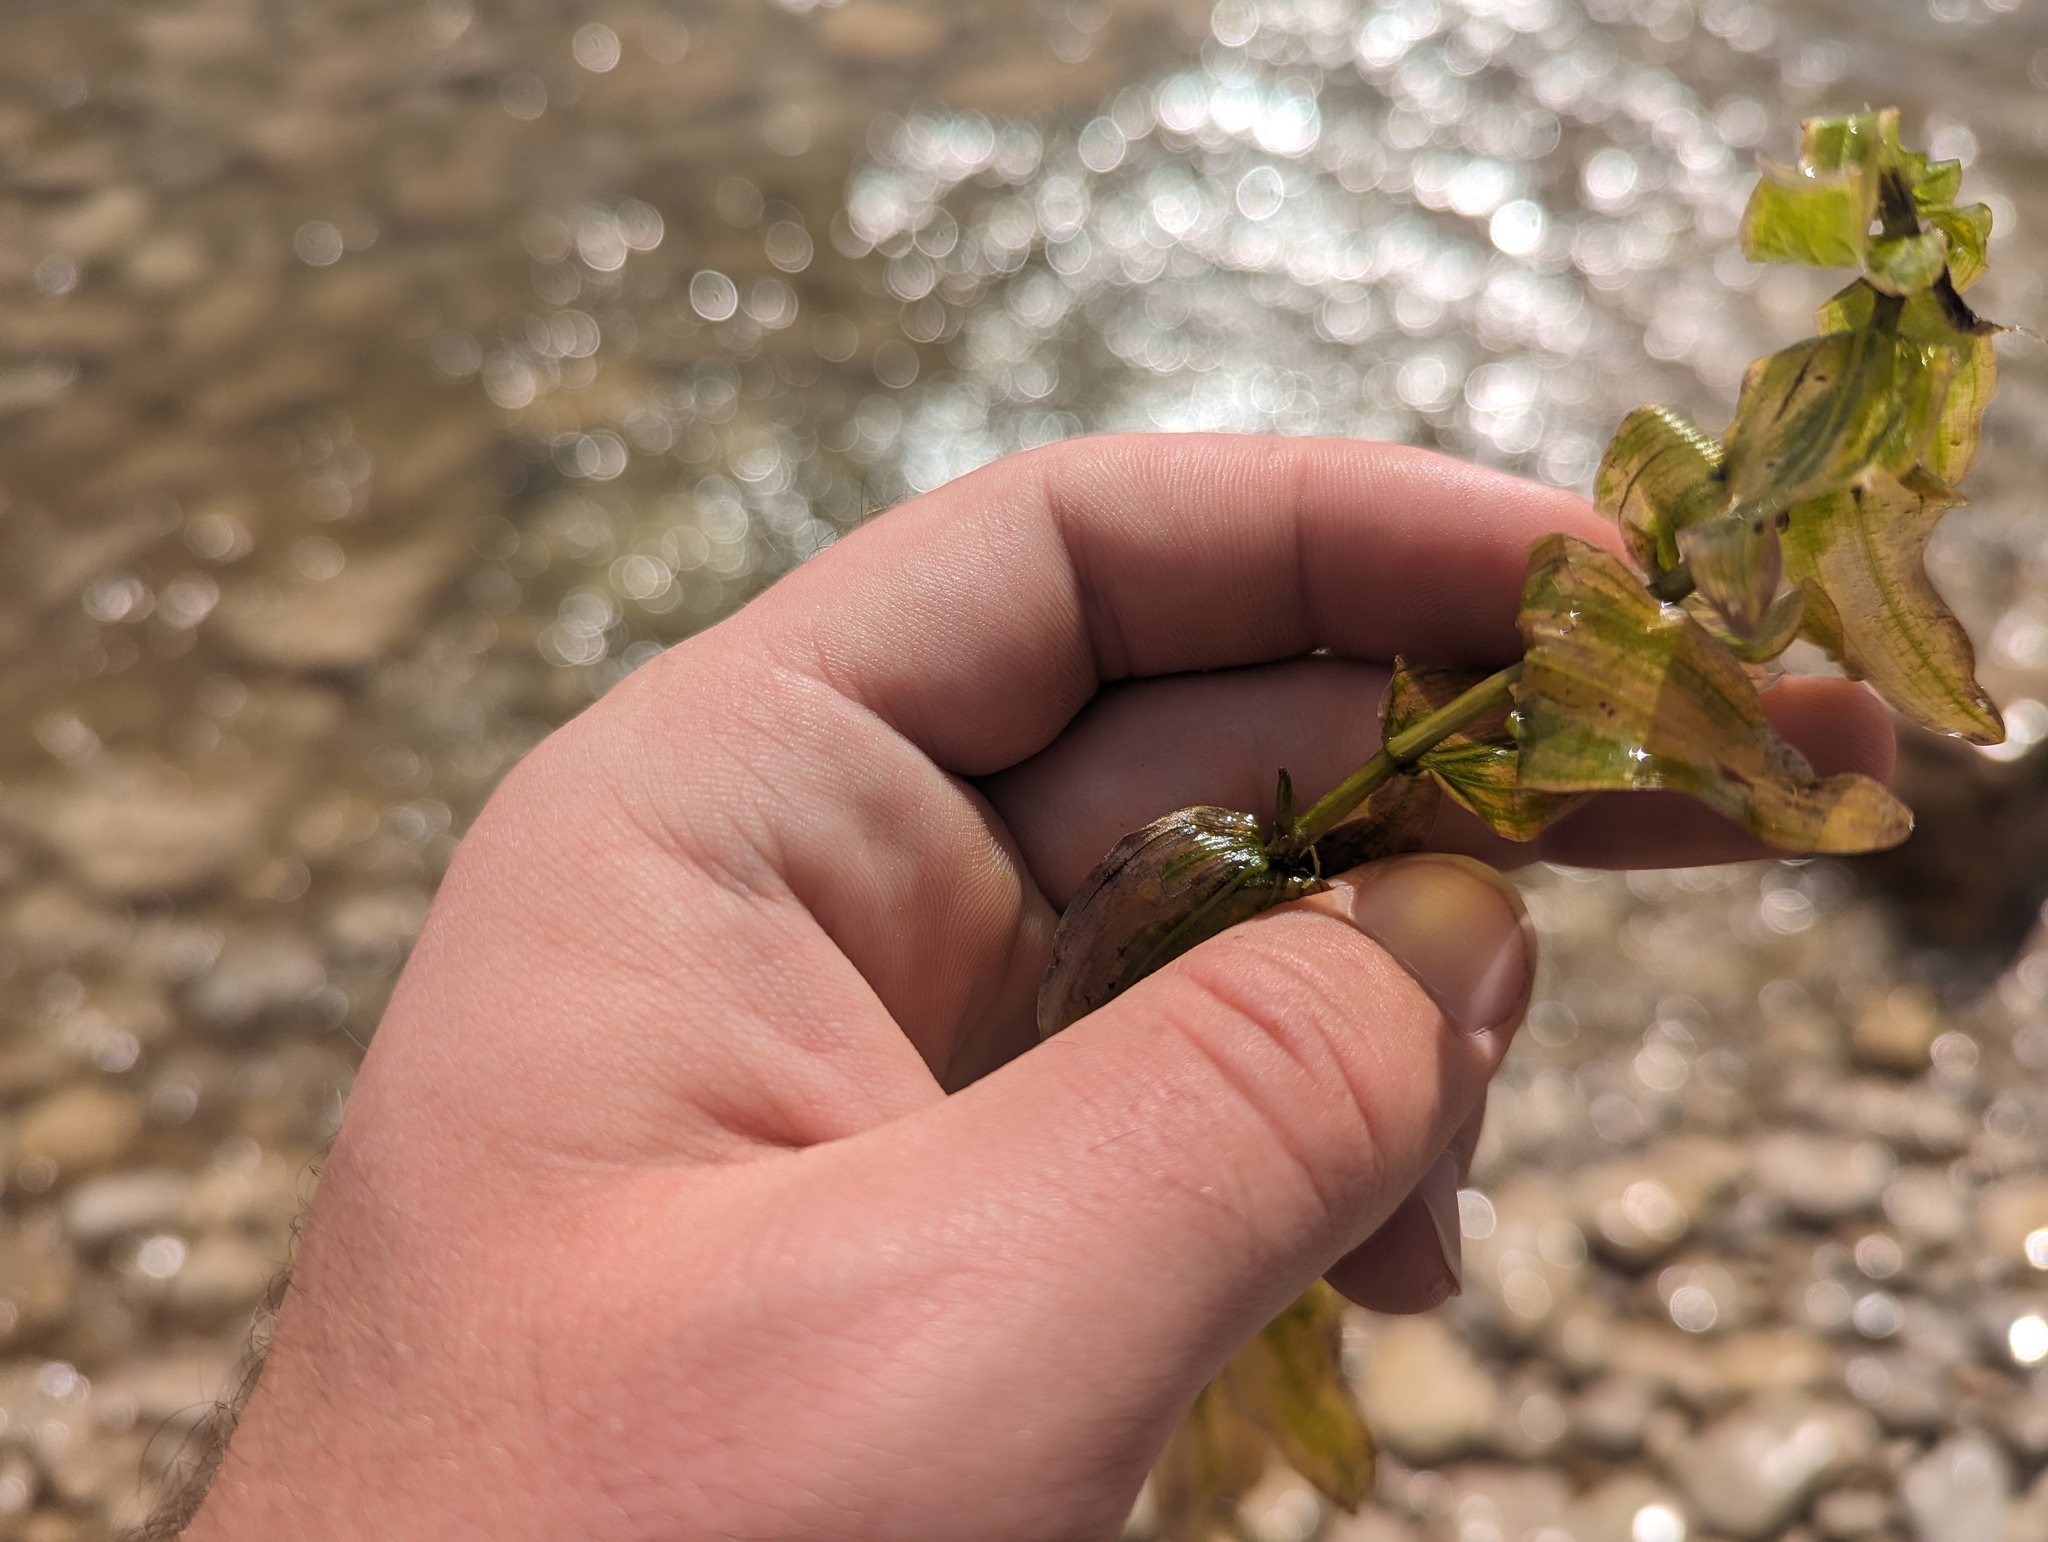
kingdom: Plantae
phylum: Tracheophyta
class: Liliopsida
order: Alismatales
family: Potamogetonaceae
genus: Potamogeton
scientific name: Potamogeton richardsonii
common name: Richardson's pondweed
